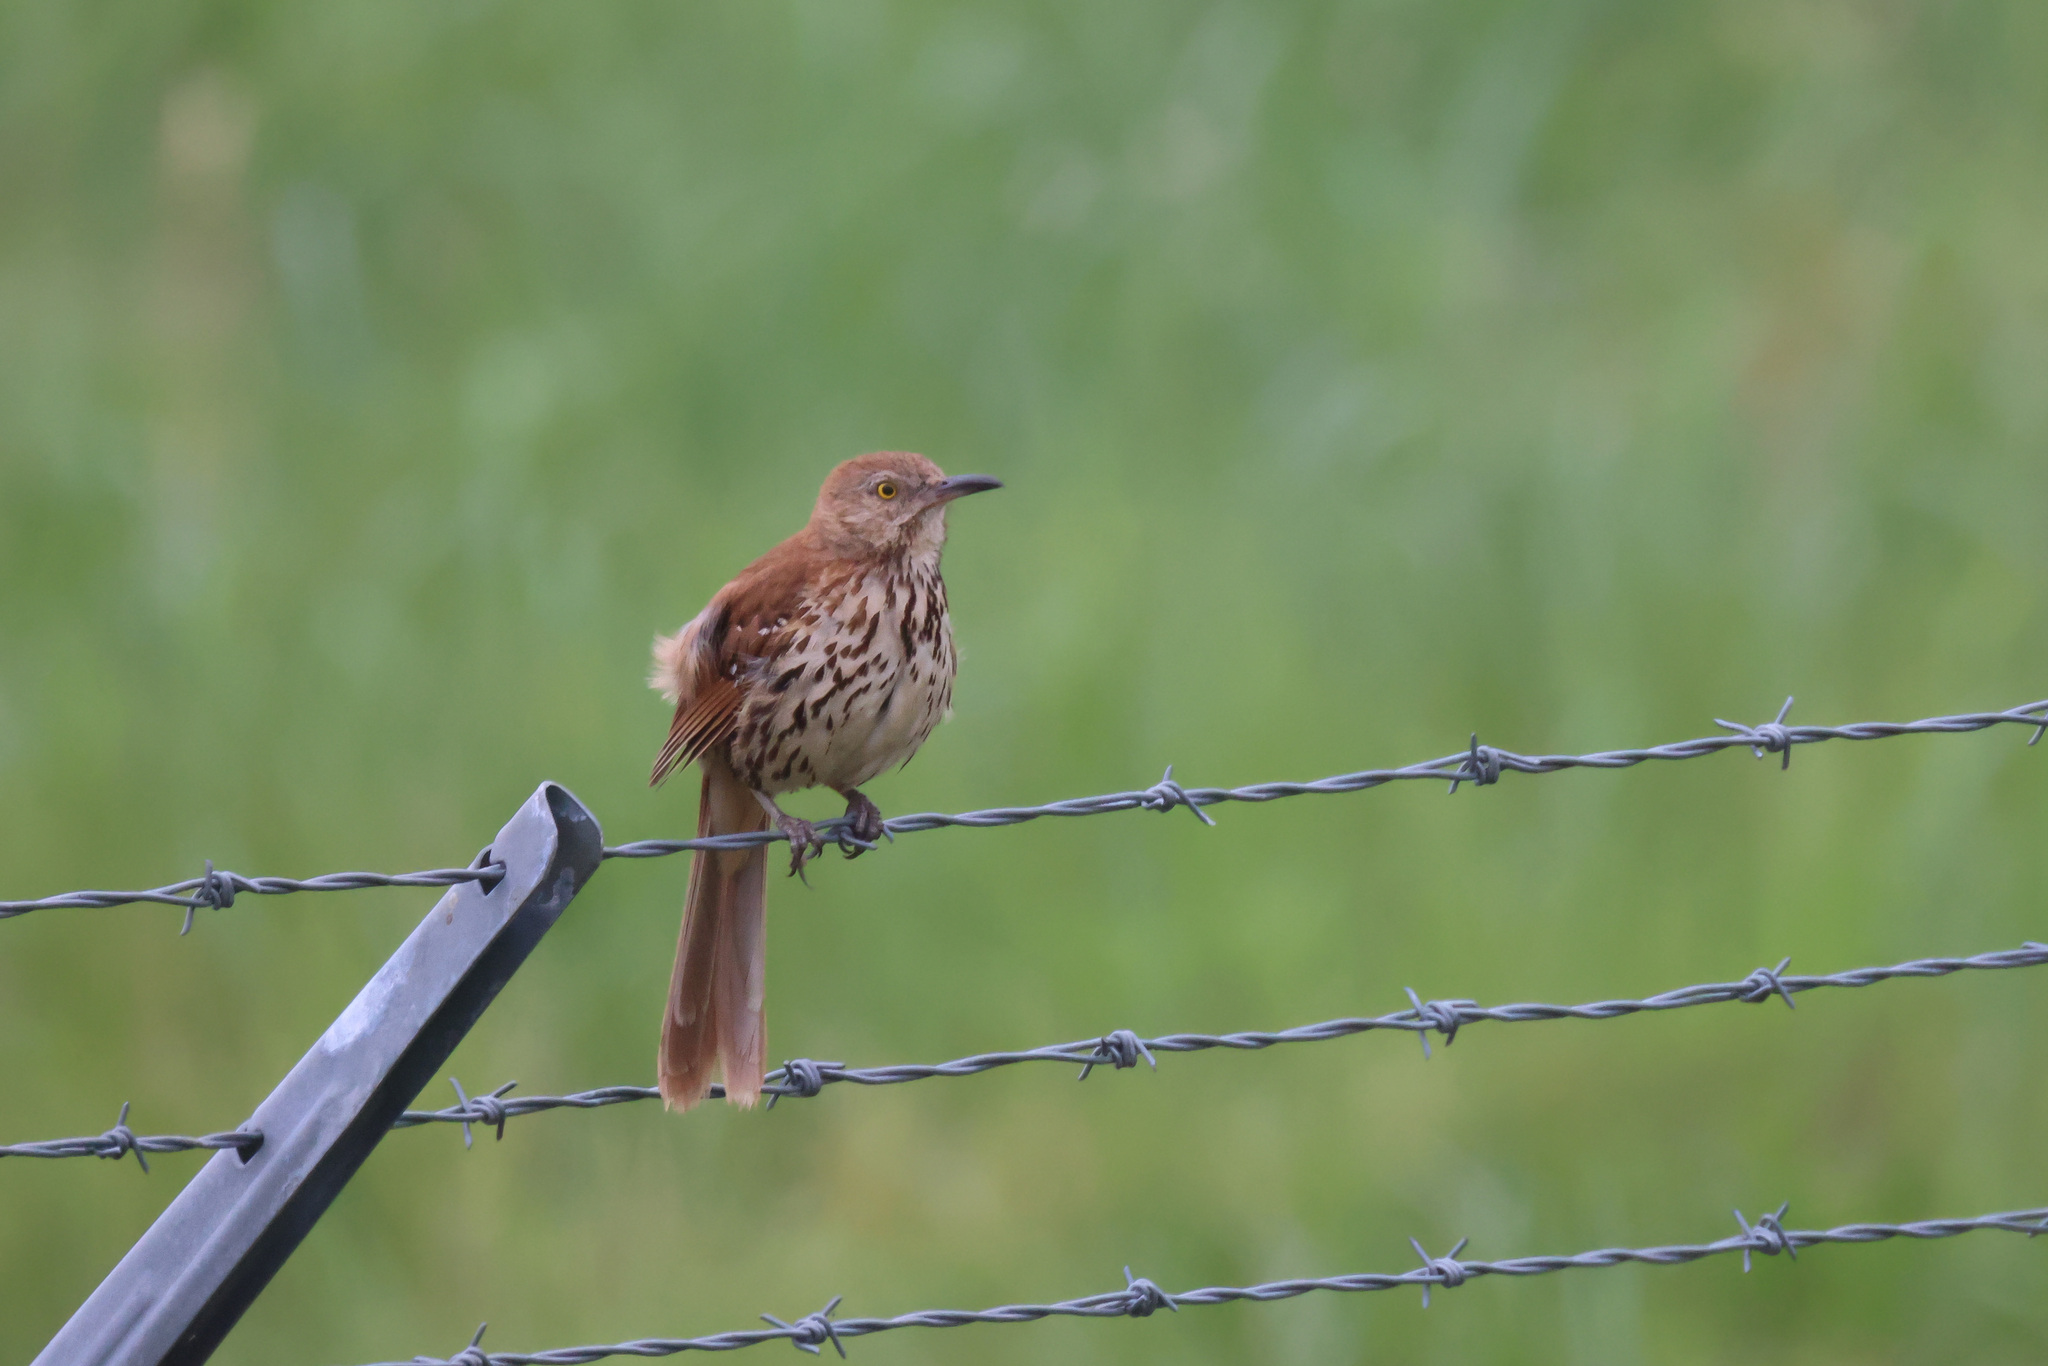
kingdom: Animalia
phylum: Chordata
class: Aves
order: Passeriformes
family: Mimidae
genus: Toxostoma
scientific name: Toxostoma rufum
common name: Brown thrasher
